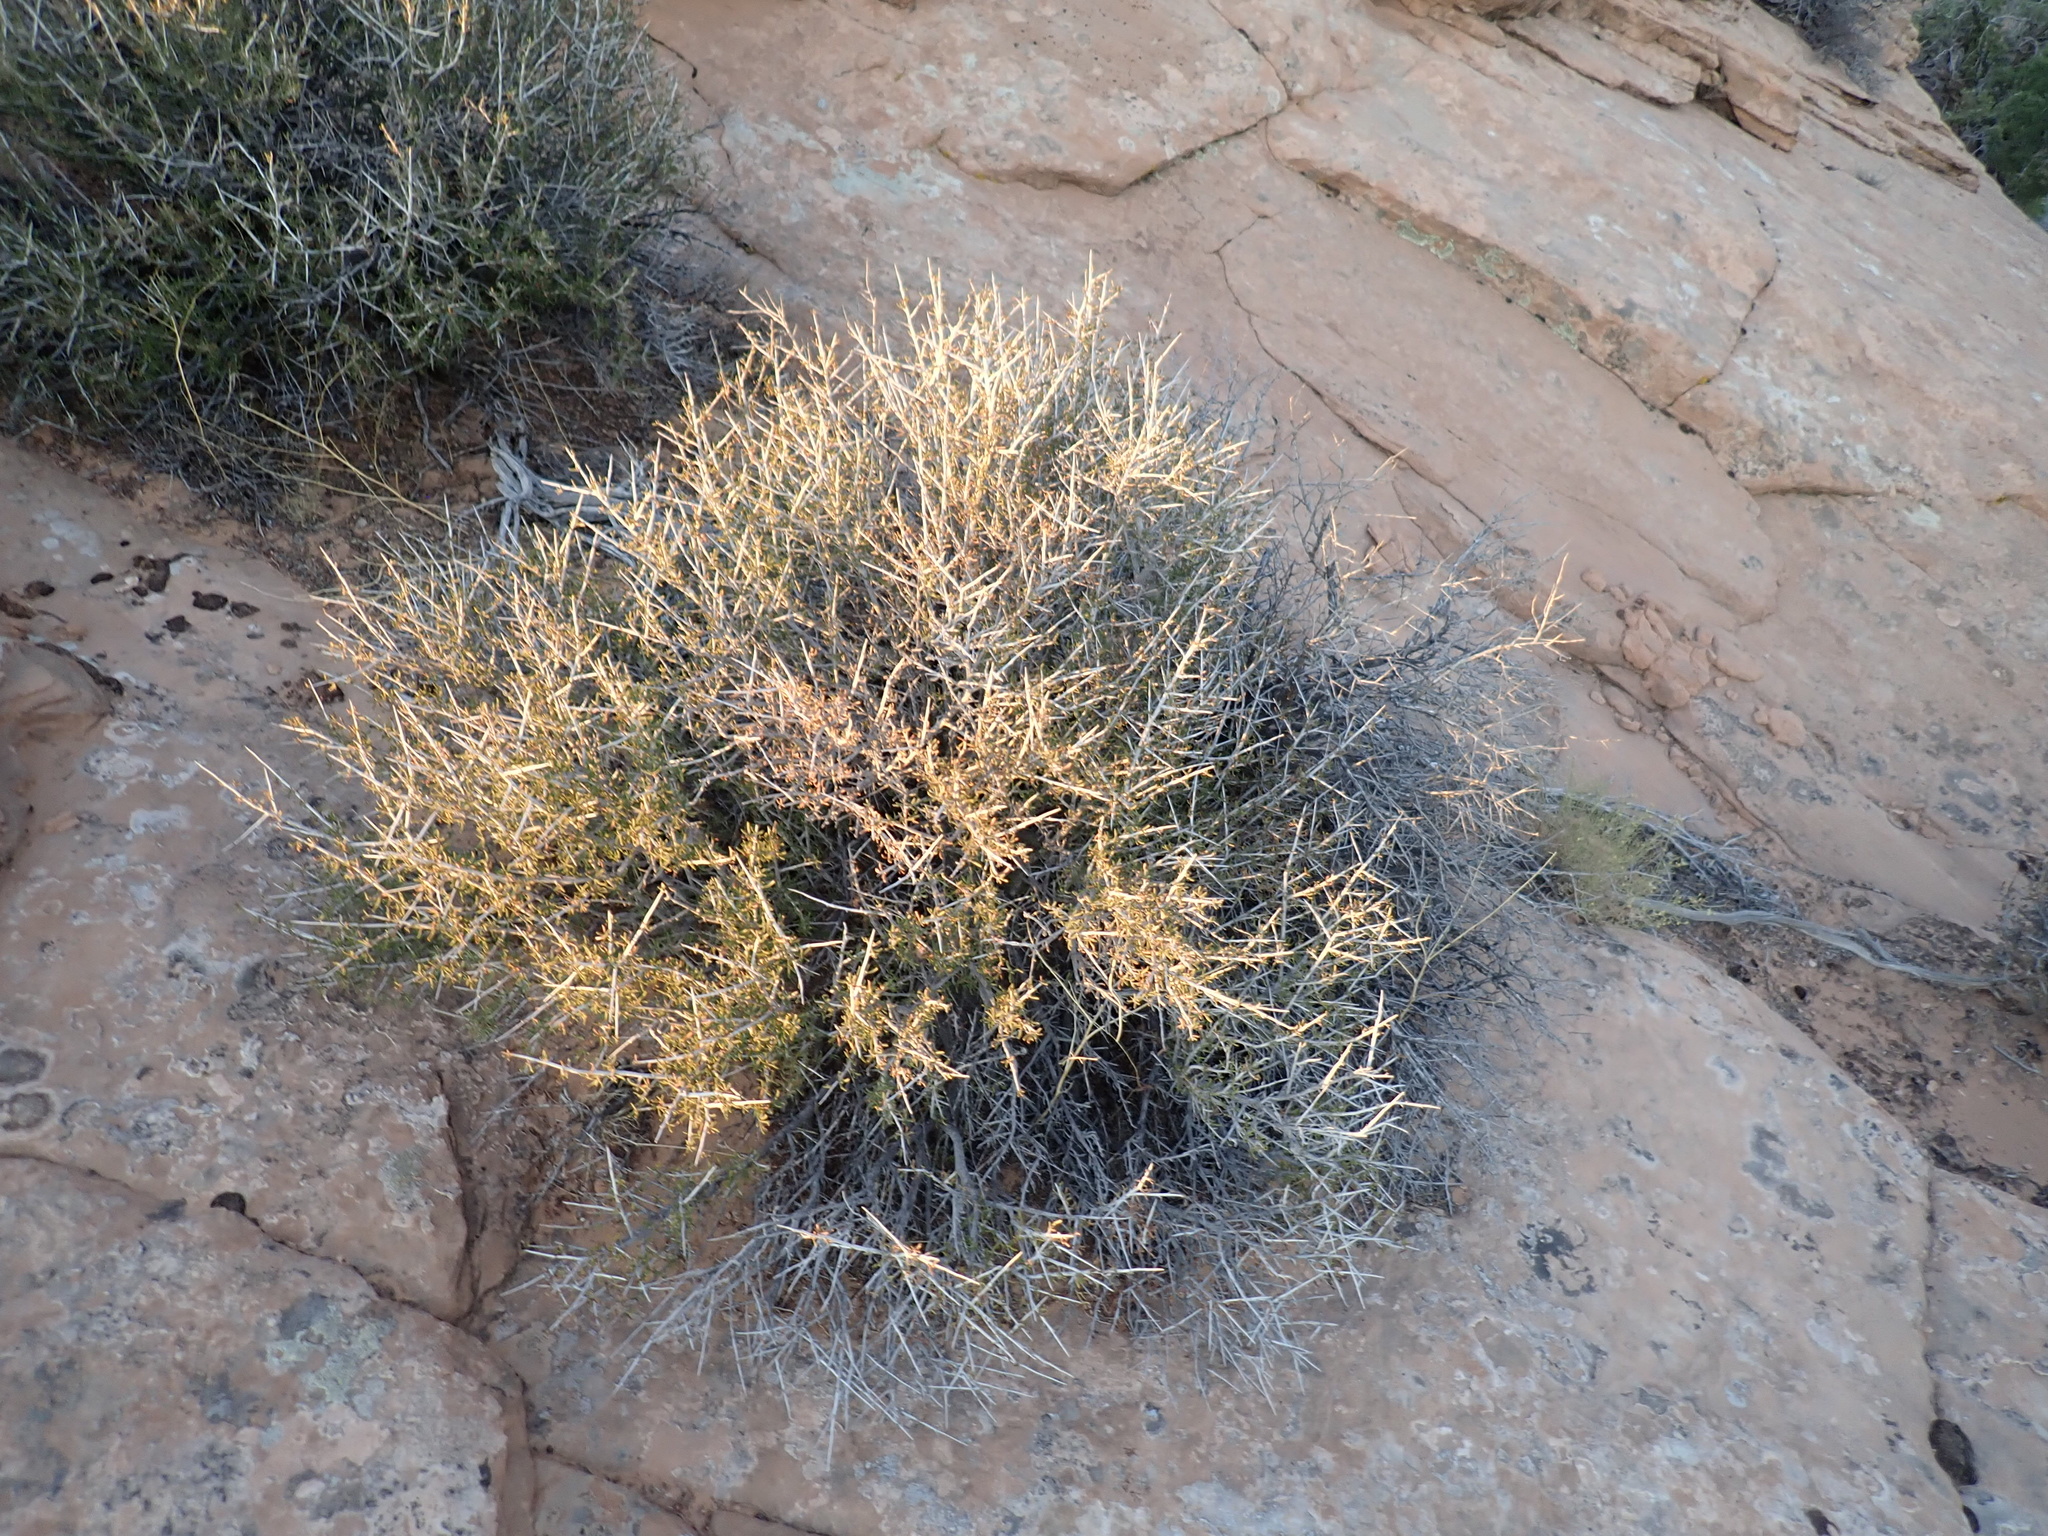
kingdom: Plantae
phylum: Tracheophyta
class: Magnoliopsida
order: Rosales
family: Rosaceae
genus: Cercocarpus
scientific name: Cercocarpus intricatus
